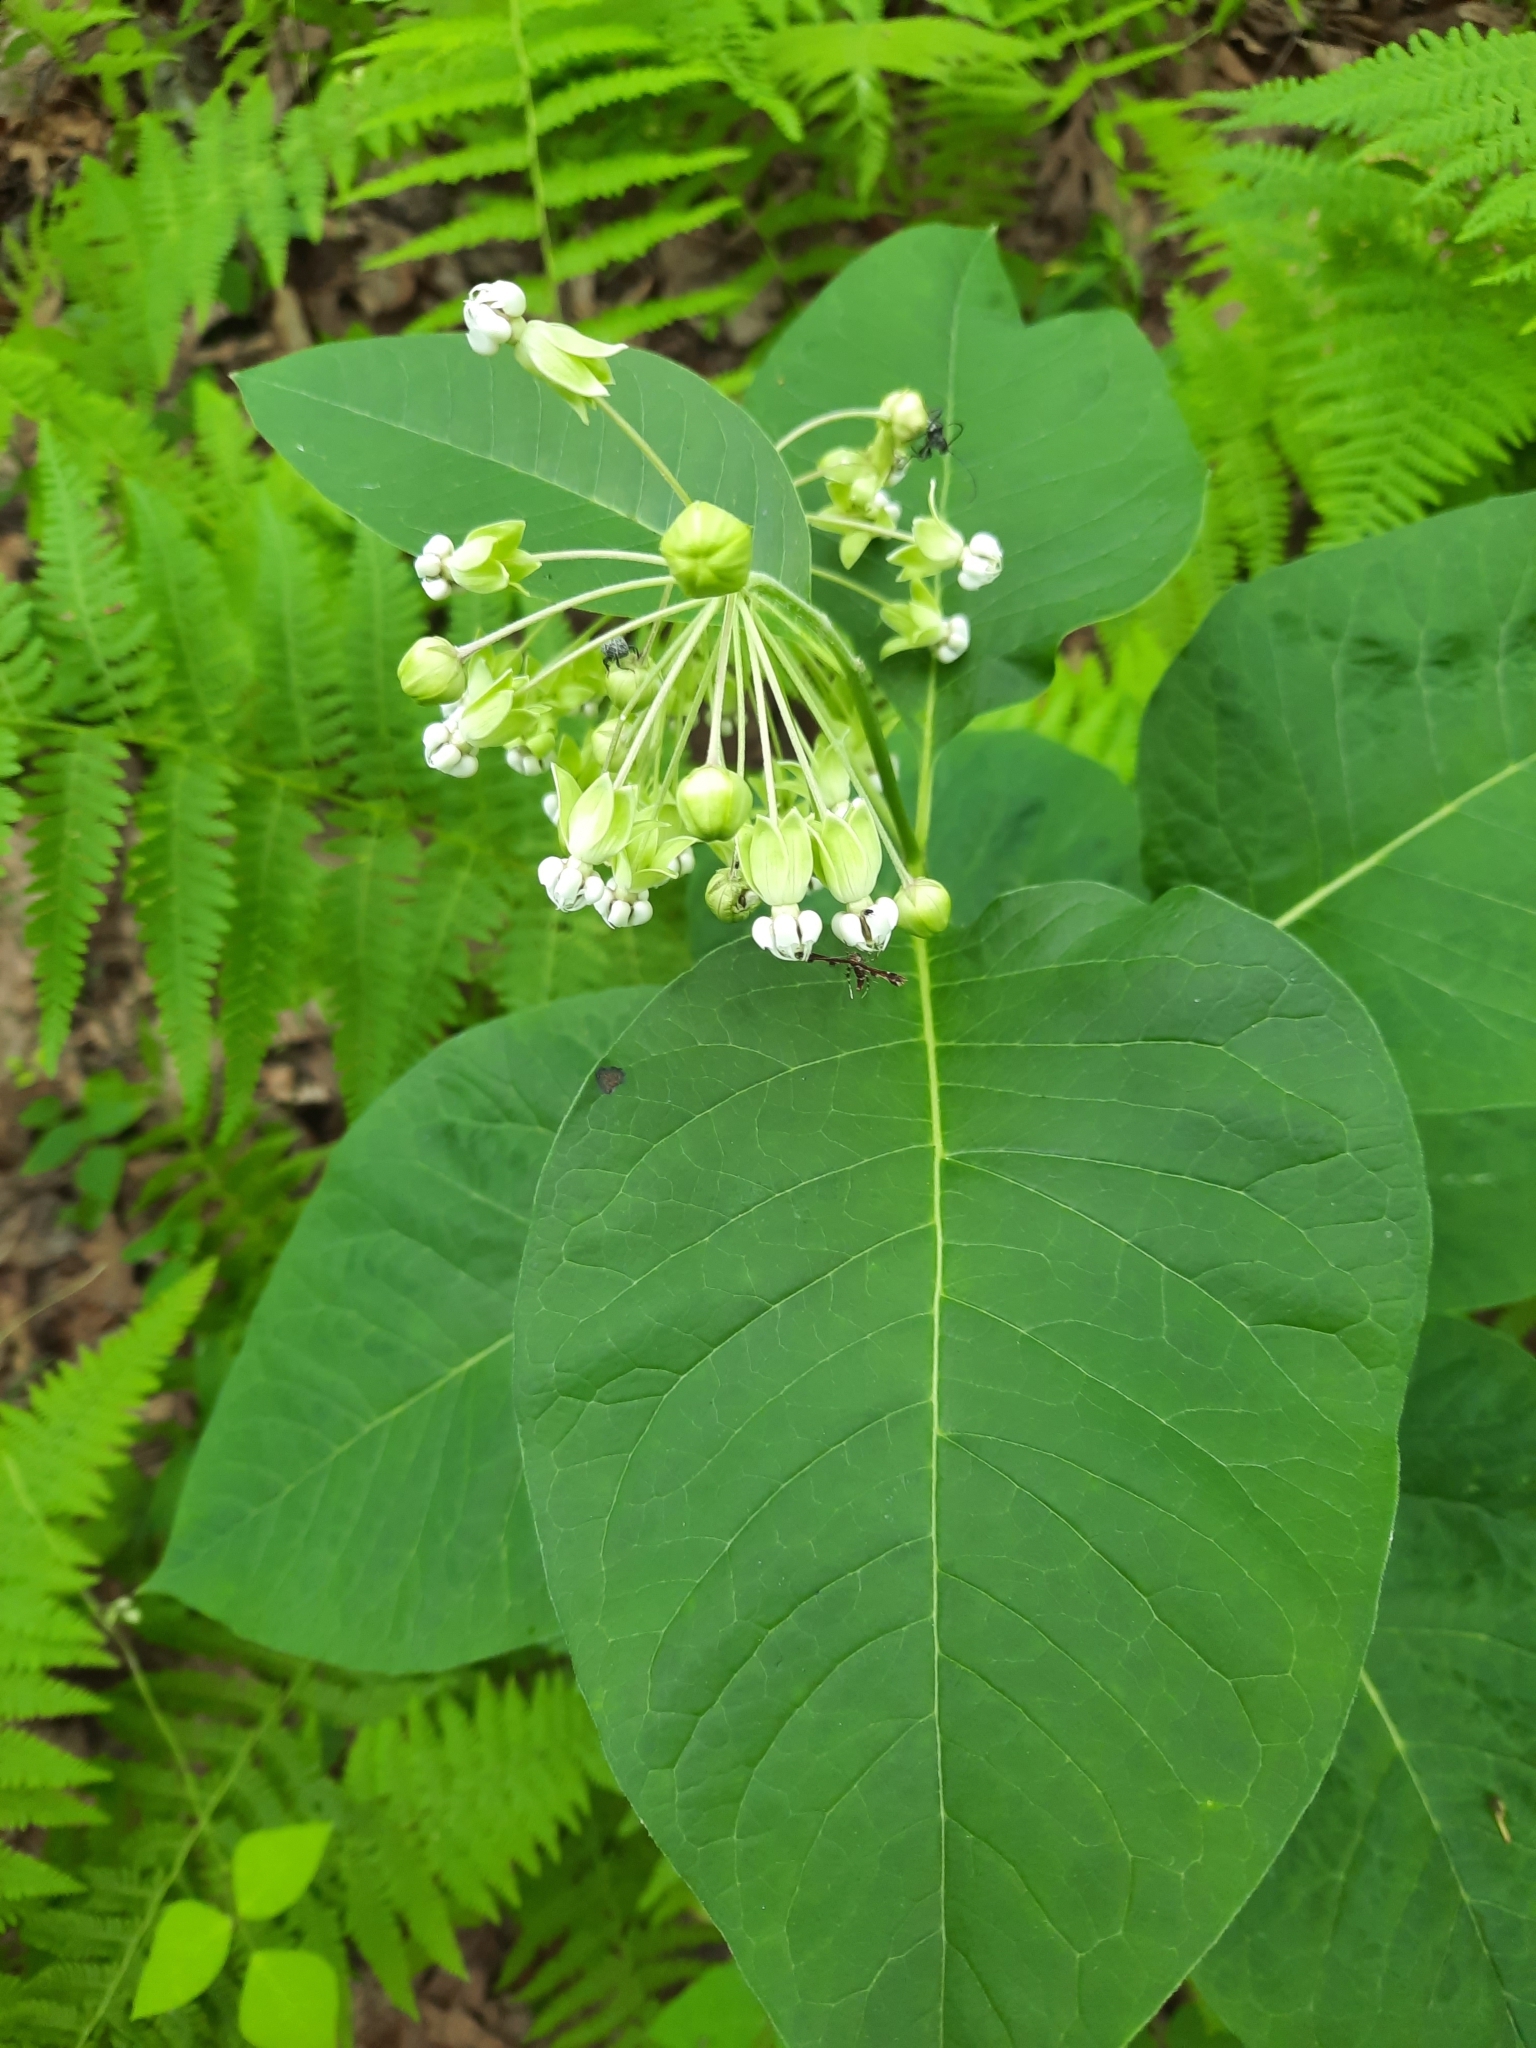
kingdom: Plantae
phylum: Tracheophyta
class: Magnoliopsida
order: Gentianales
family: Apocynaceae
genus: Asclepias
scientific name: Asclepias exaltata
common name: Poke milkweed
